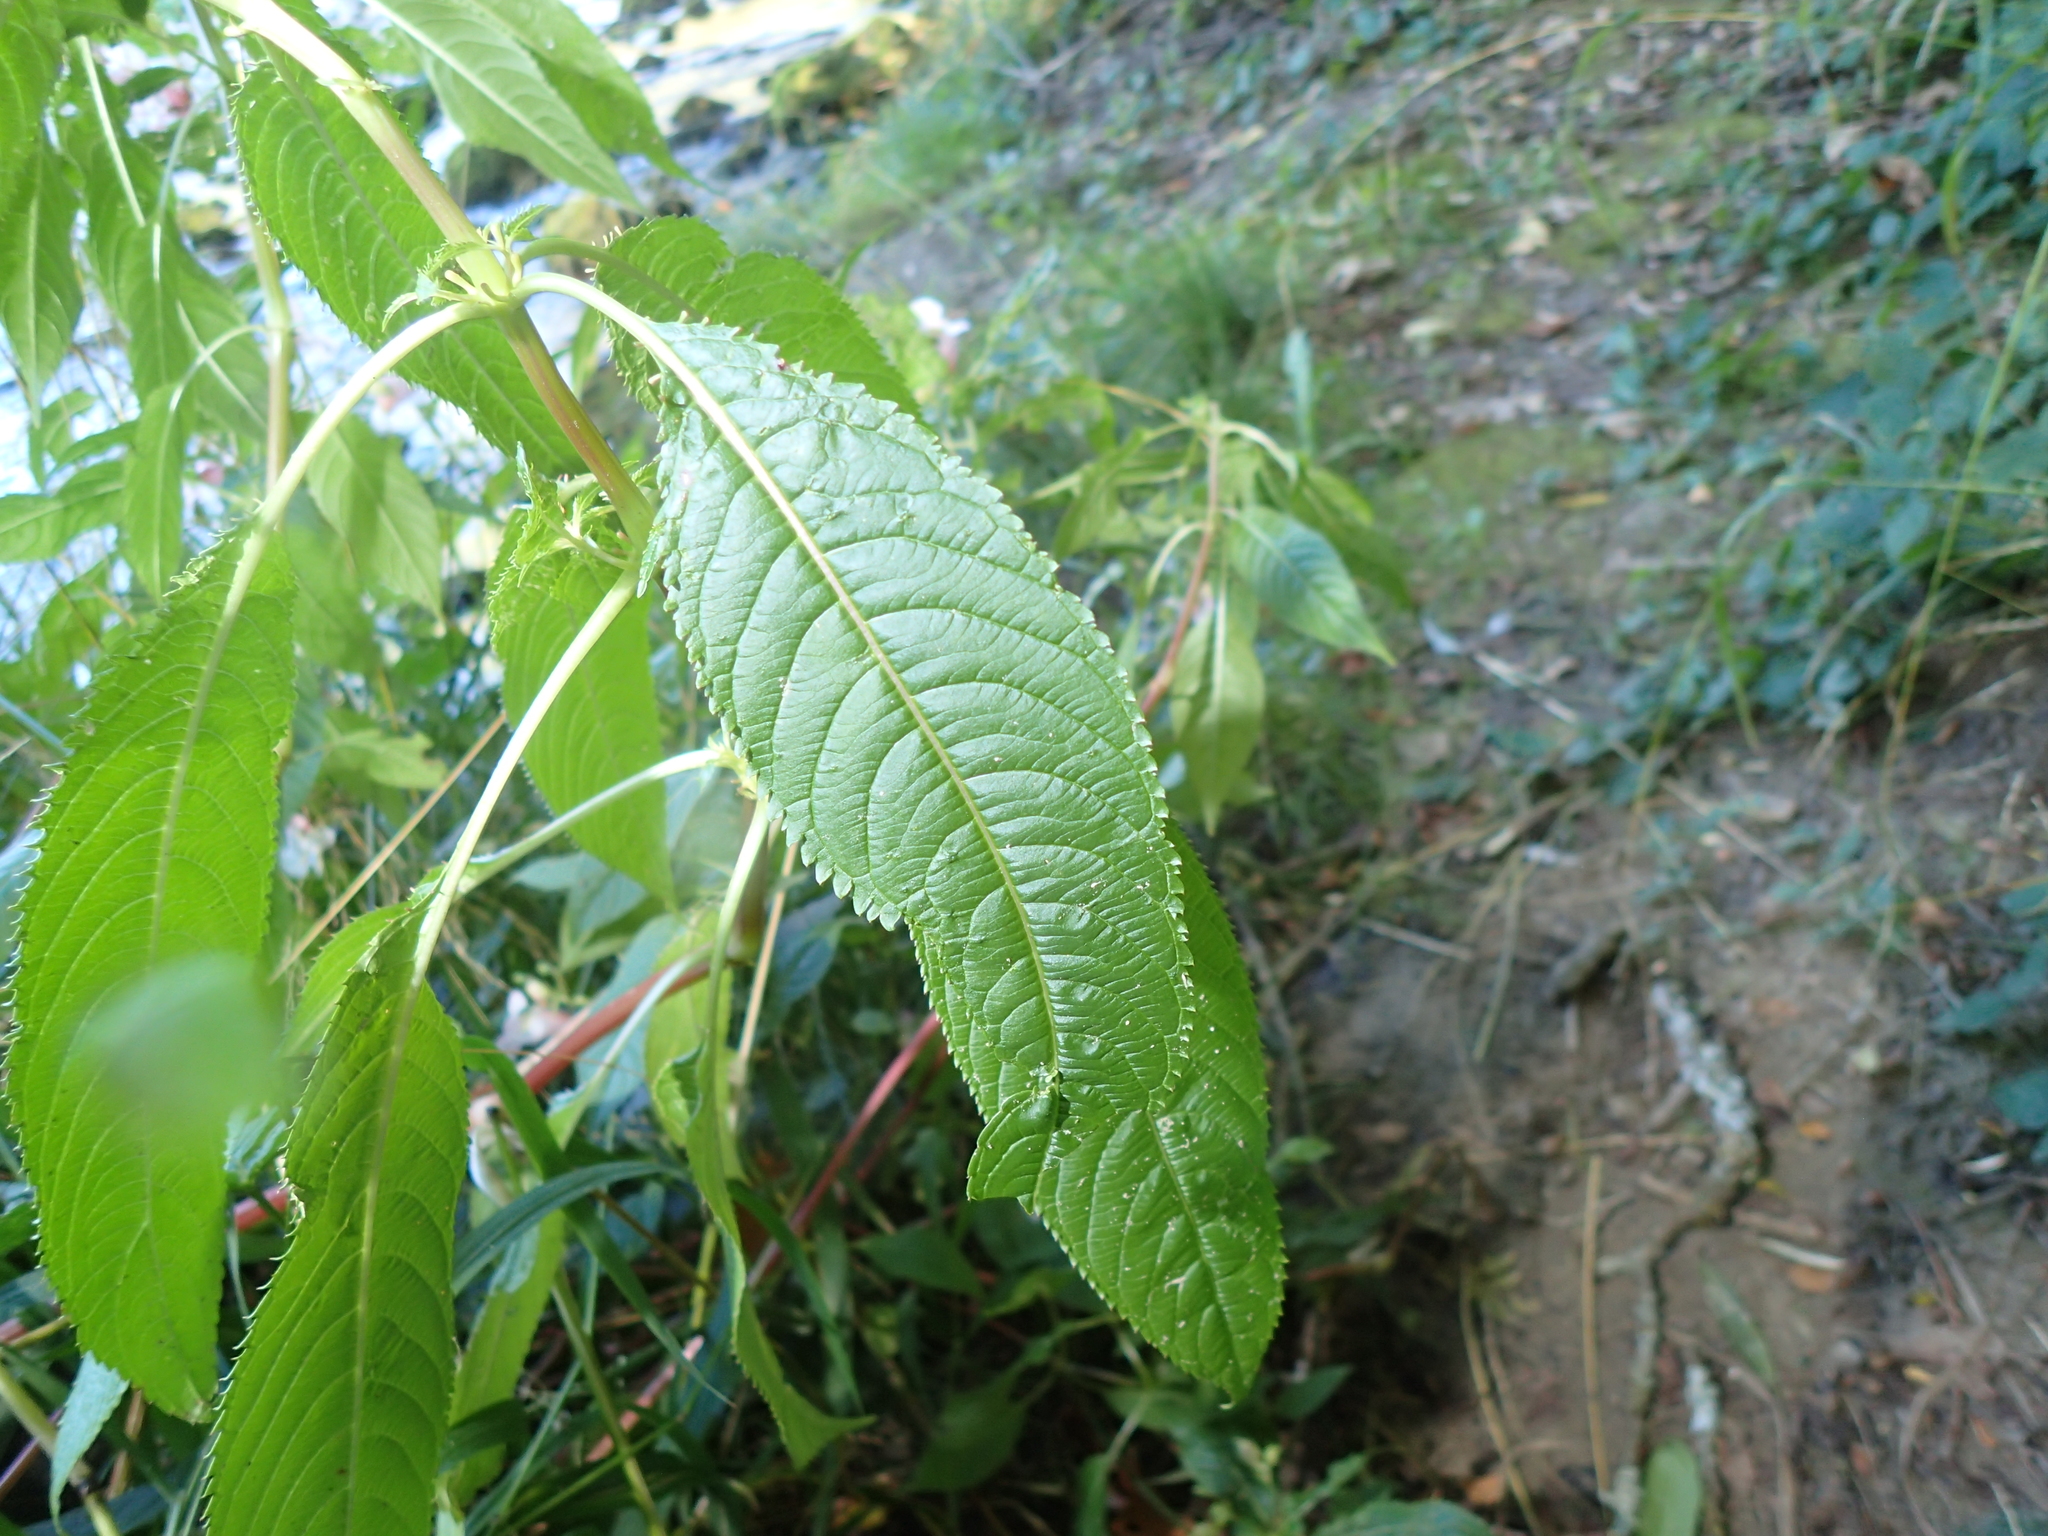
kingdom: Plantae
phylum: Tracheophyta
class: Magnoliopsida
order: Ericales
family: Balsaminaceae
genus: Impatiens
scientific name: Impatiens glandulifera
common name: Himalayan balsam
